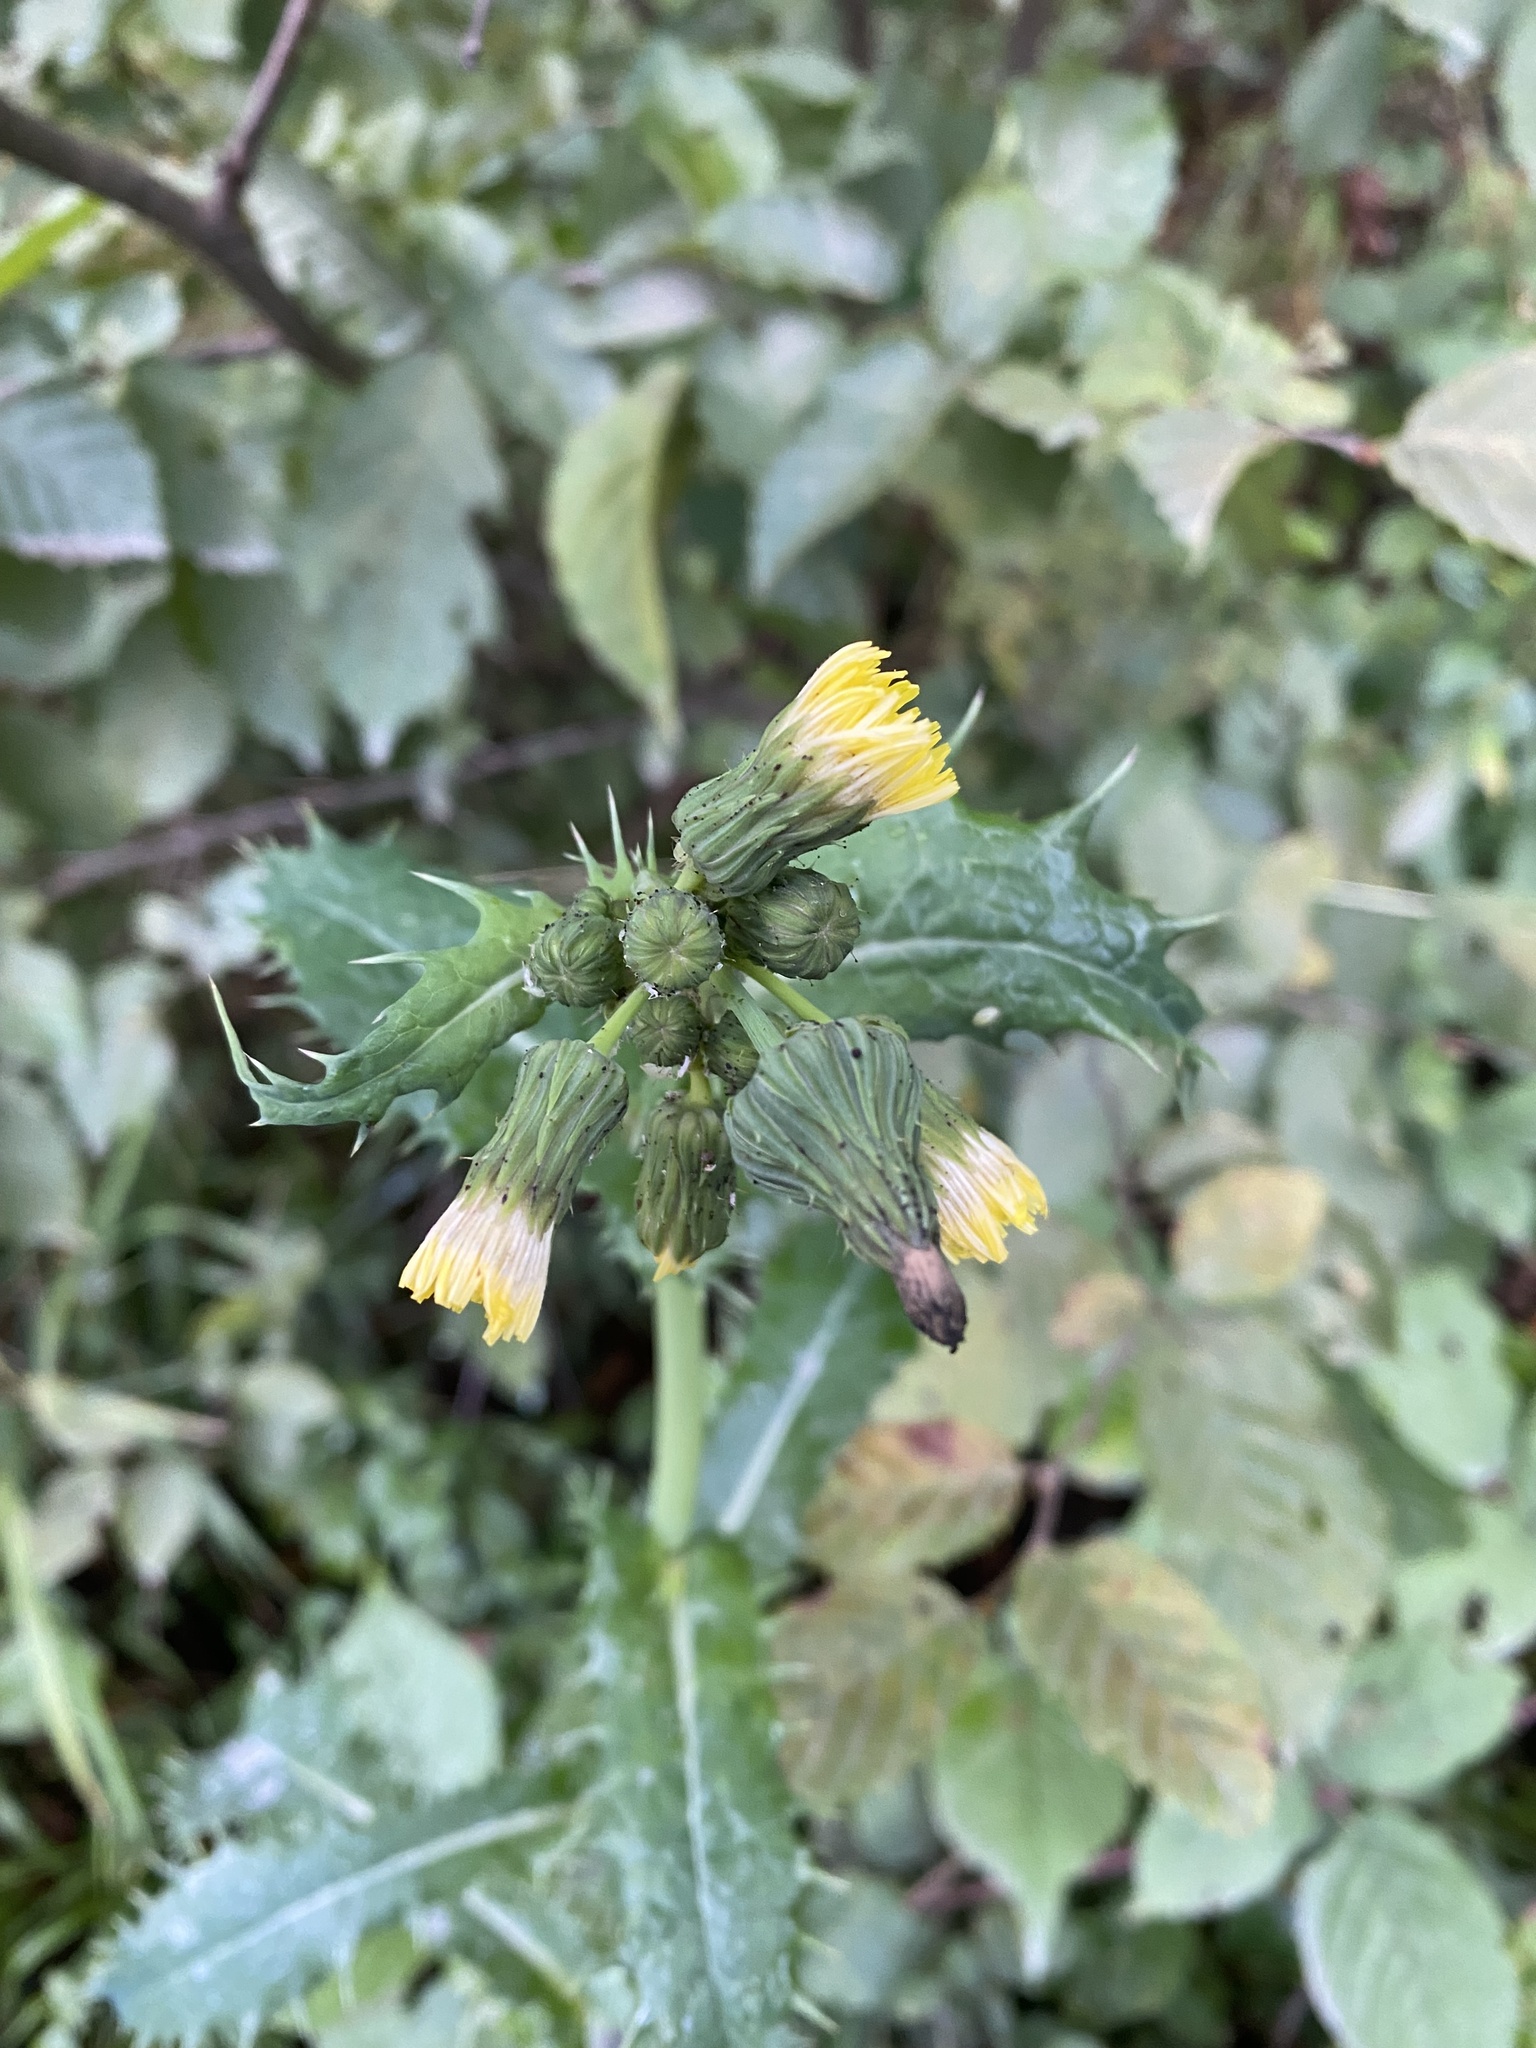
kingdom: Plantae
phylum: Tracheophyta
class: Magnoliopsida
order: Asterales
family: Asteraceae
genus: Sonchus
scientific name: Sonchus asper
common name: Prickly sow-thistle
